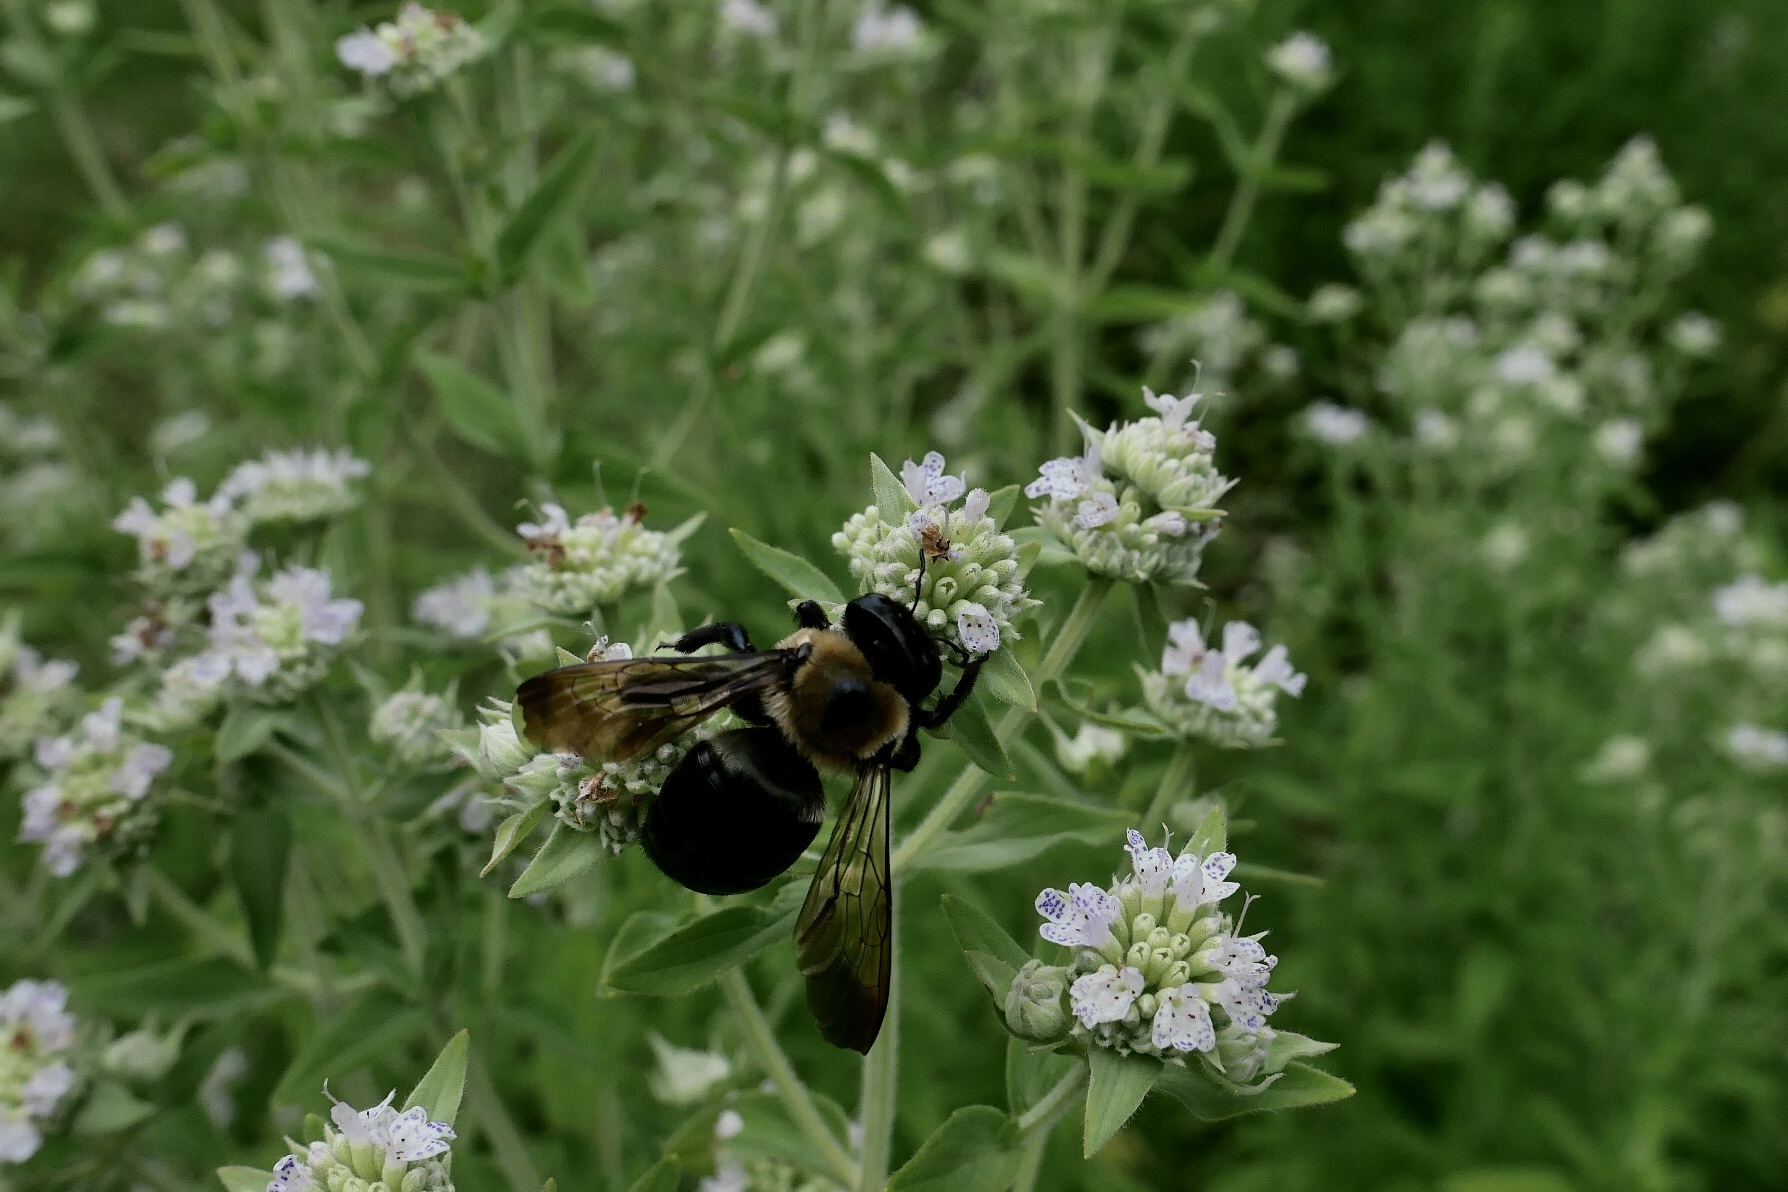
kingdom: Animalia
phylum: Arthropoda
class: Insecta
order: Hymenoptera
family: Apidae
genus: Xylocopa
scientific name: Xylocopa virginica
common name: Carpenter bee
